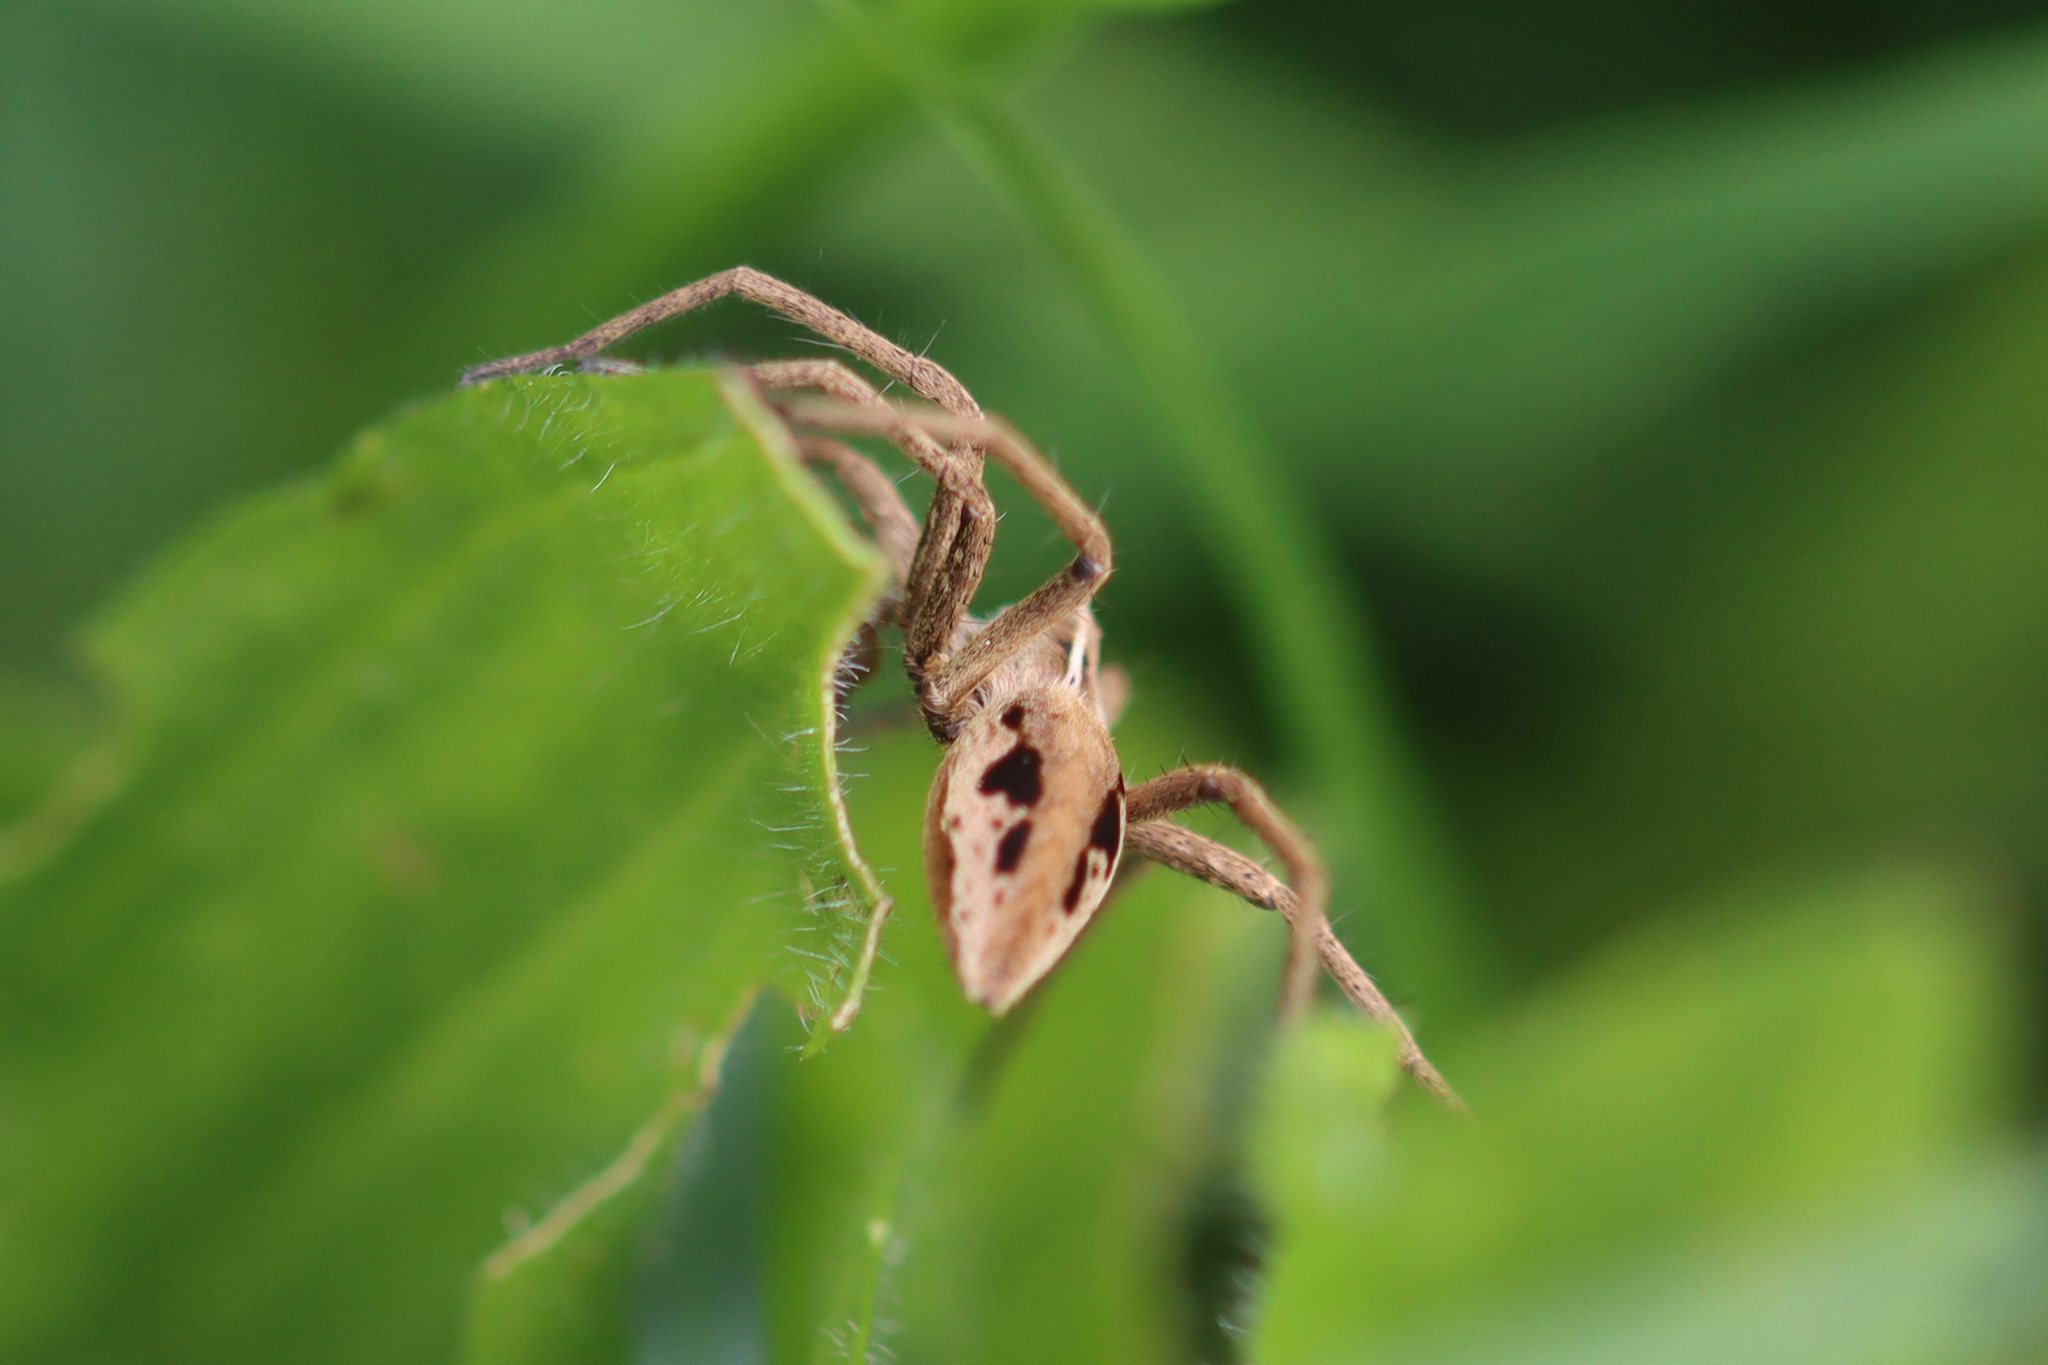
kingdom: Animalia
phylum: Arthropoda
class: Arachnida
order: Araneae
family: Pisauridae
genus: Pisaura
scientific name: Pisaura mirabilis
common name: Tent spider
